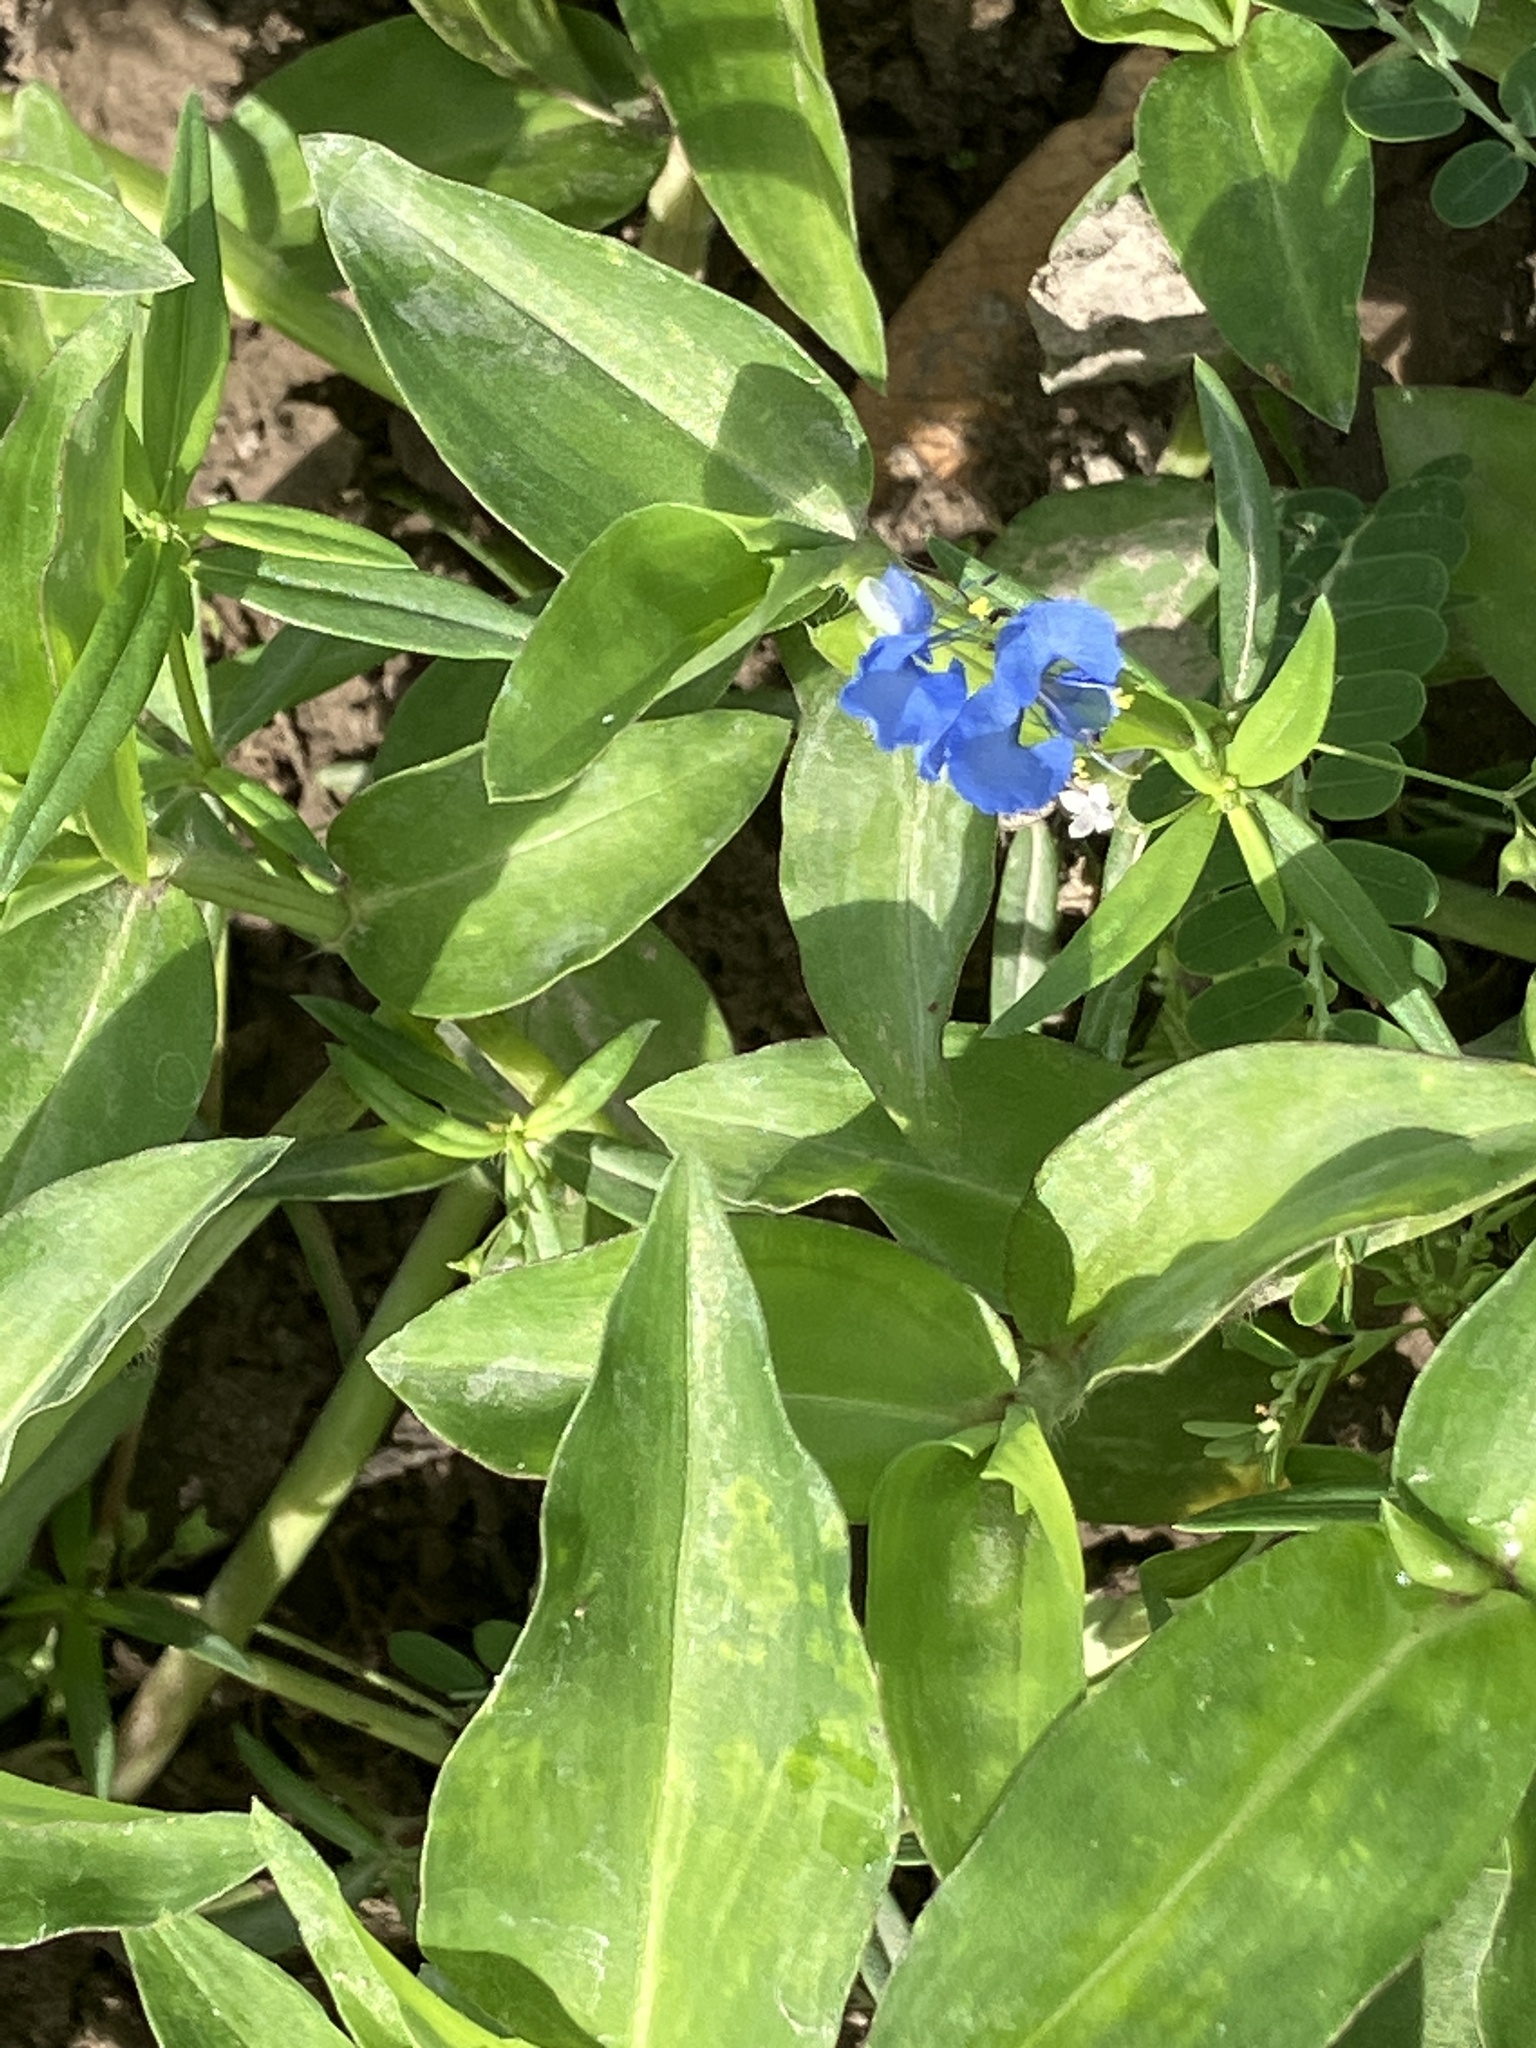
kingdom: Plantae
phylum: Tracheophyta
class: Liliopsida
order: Commelinales
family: Commelinaceae
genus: Commelina
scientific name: Commelina diffusa
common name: Climbing dayflower
